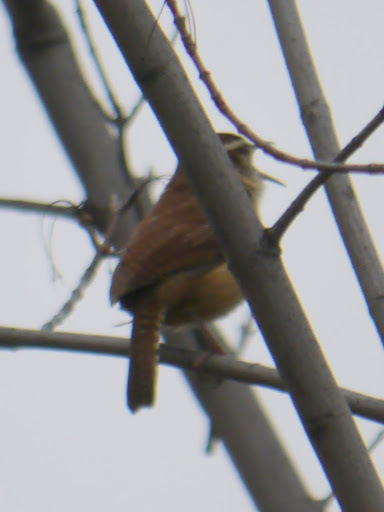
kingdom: Animalia
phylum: Chordata
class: Aves
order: Passeriformes
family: Troglodytidae
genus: Thryothorus
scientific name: Thryothorus ludovicianus
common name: Carolina wren
